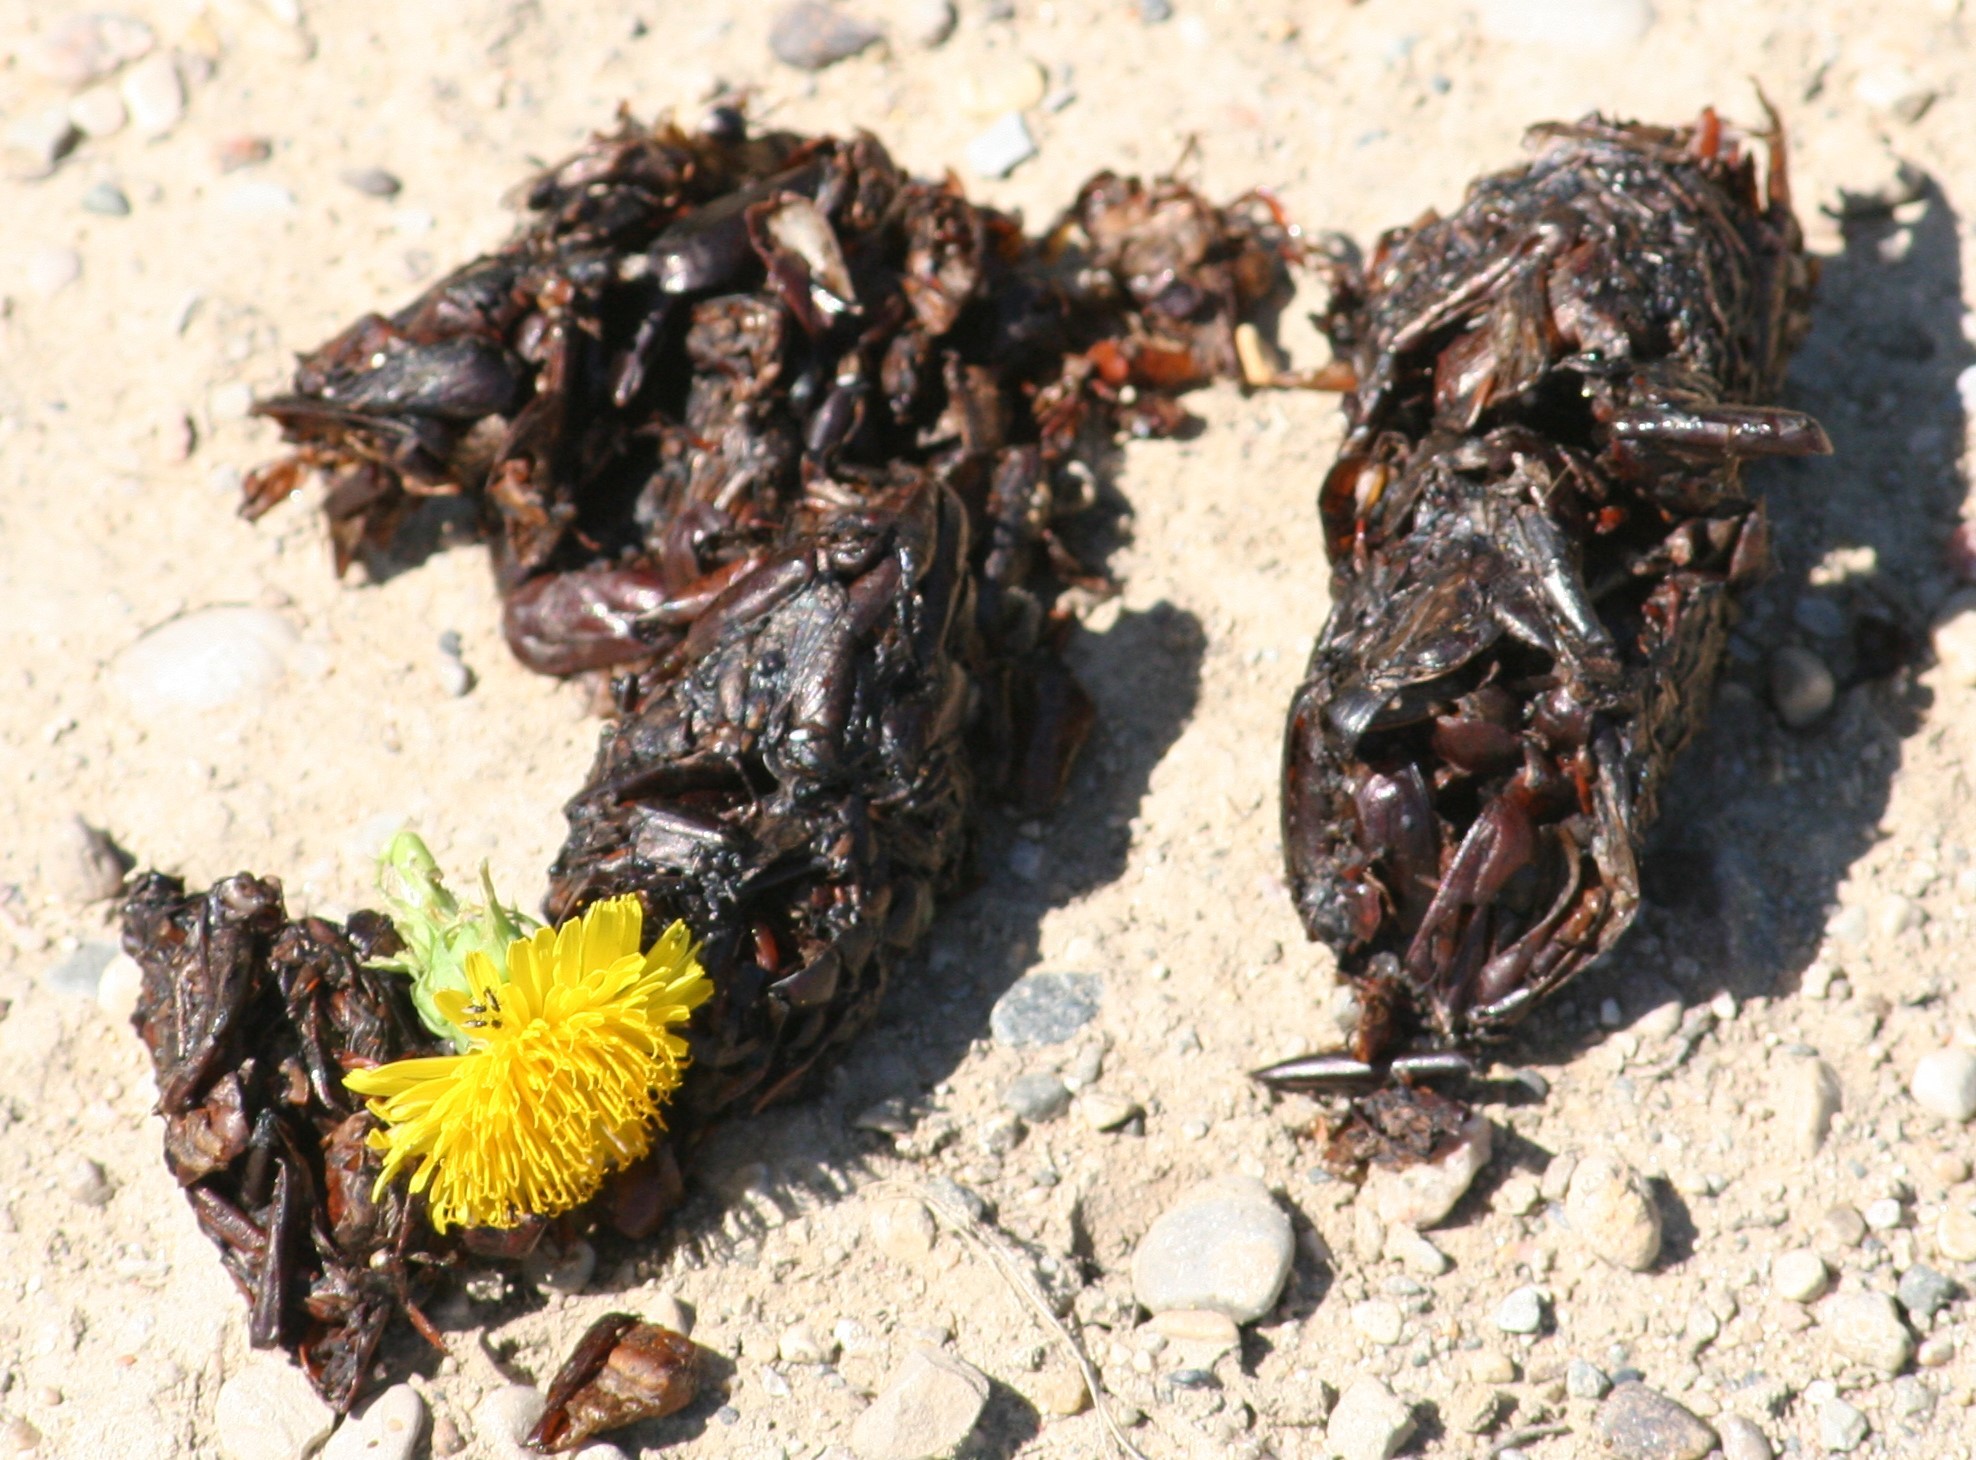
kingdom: Animalia
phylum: Chordata
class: Mammalia
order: Carnivora
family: Ursidae
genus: Ursus
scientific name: Ursus americanus
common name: American black bear
